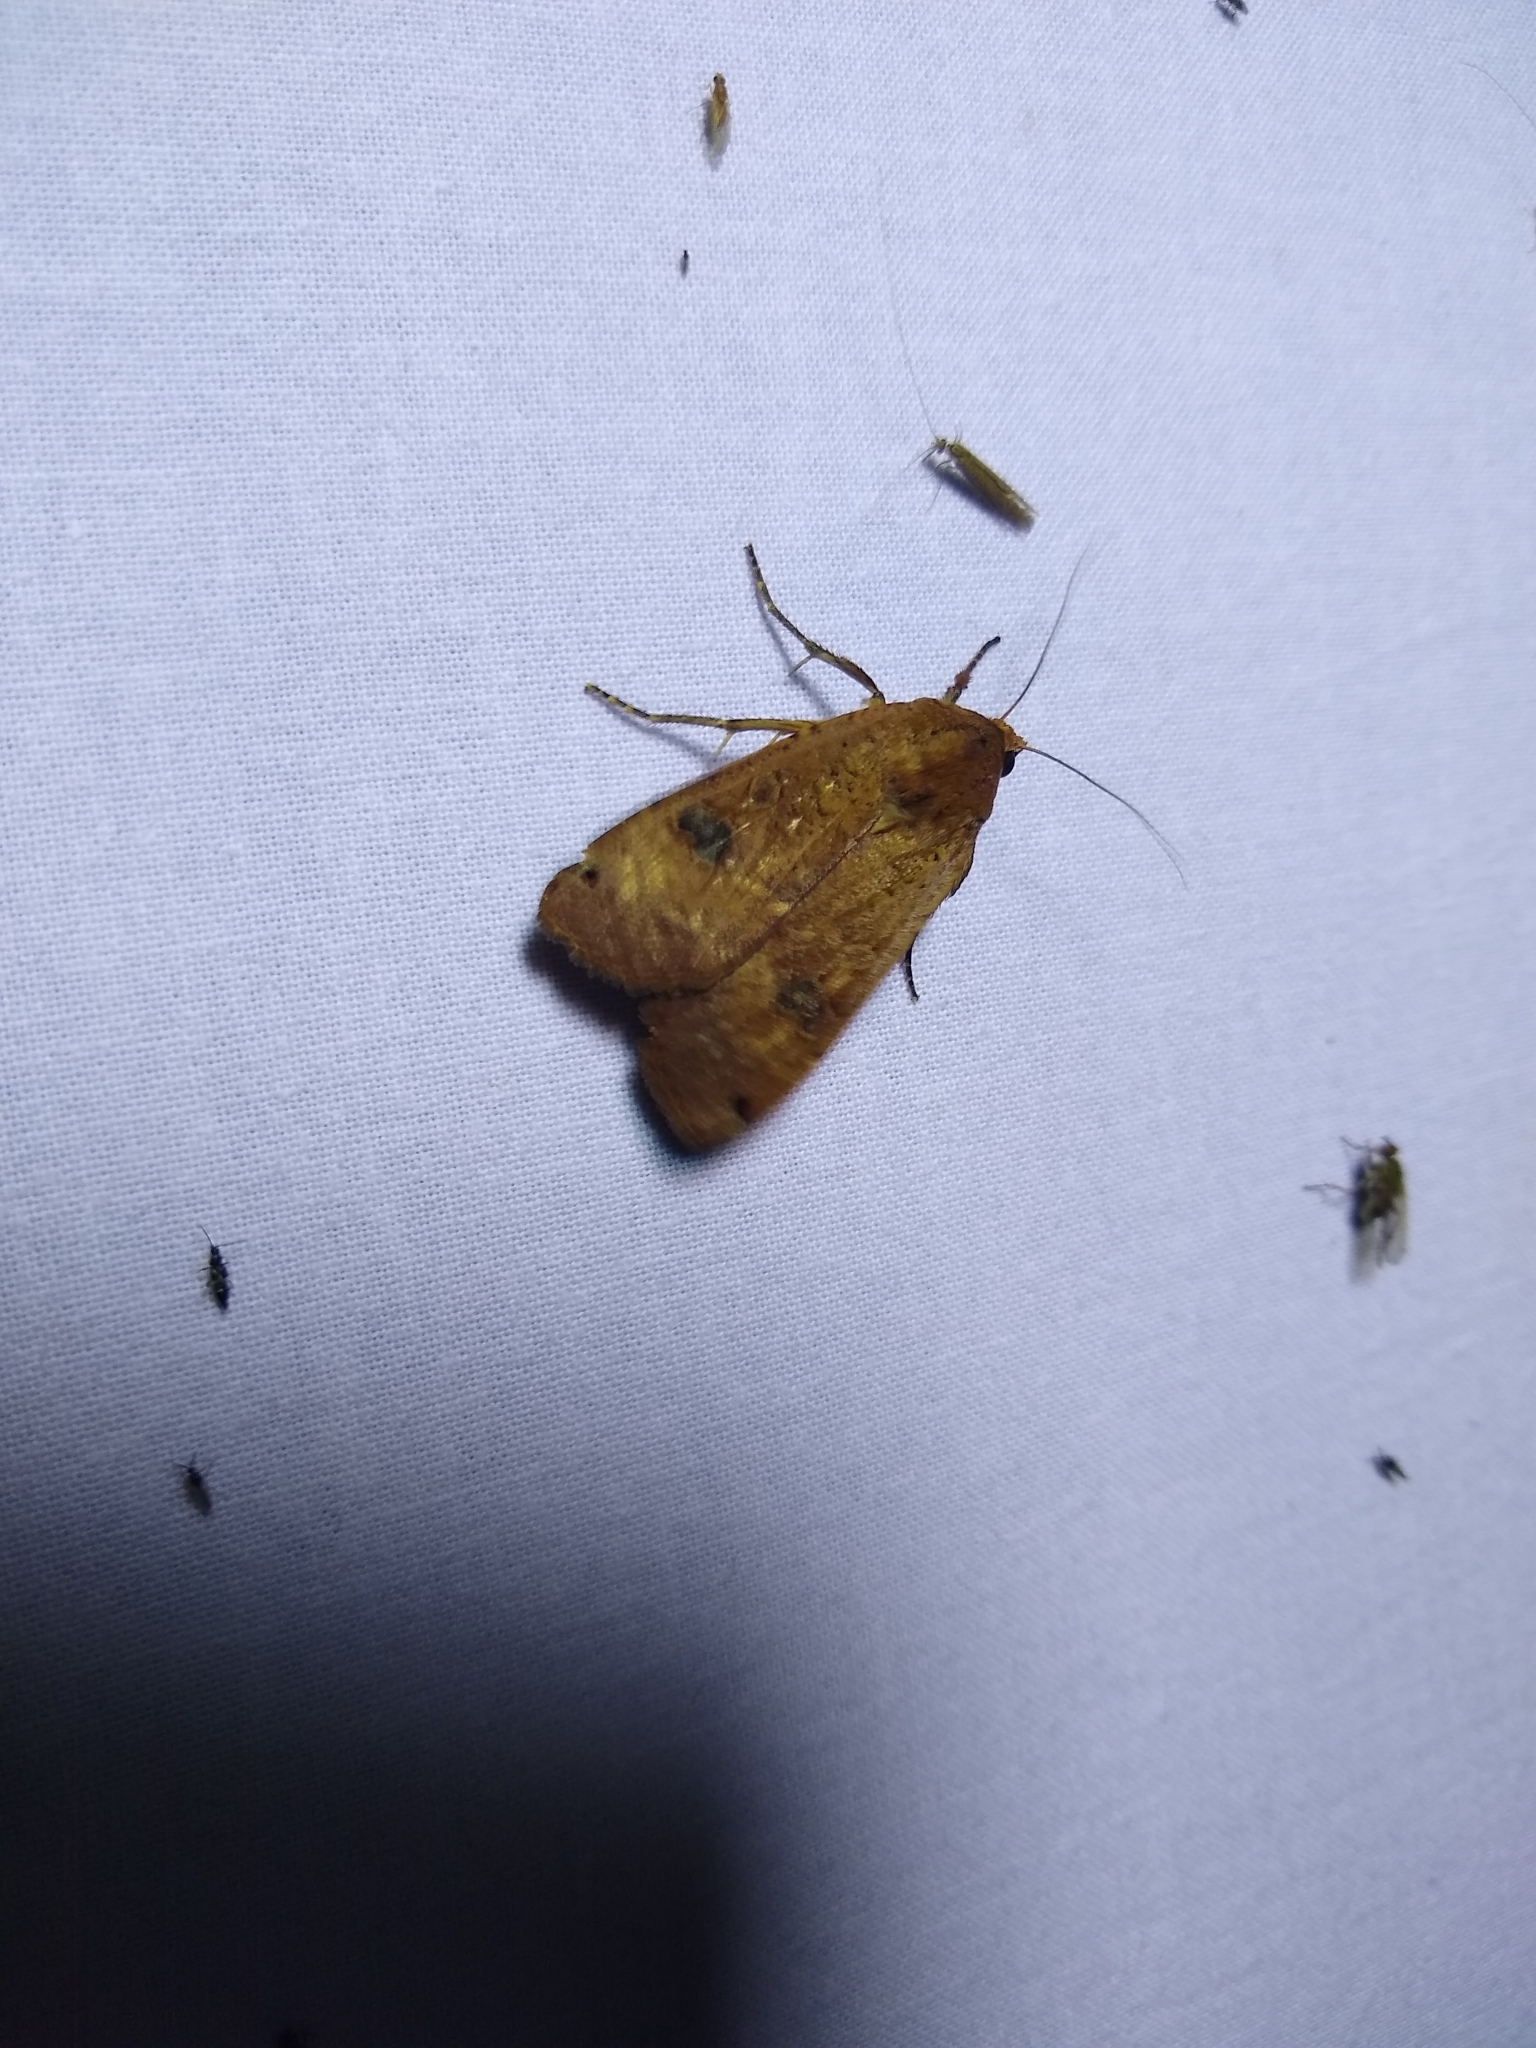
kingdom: Animalia
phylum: Arthropoda
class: Insecta
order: Lepidoptera
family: Noctuidae
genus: Noctua
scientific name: Noctua pronuba
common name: Large yellow underwing
